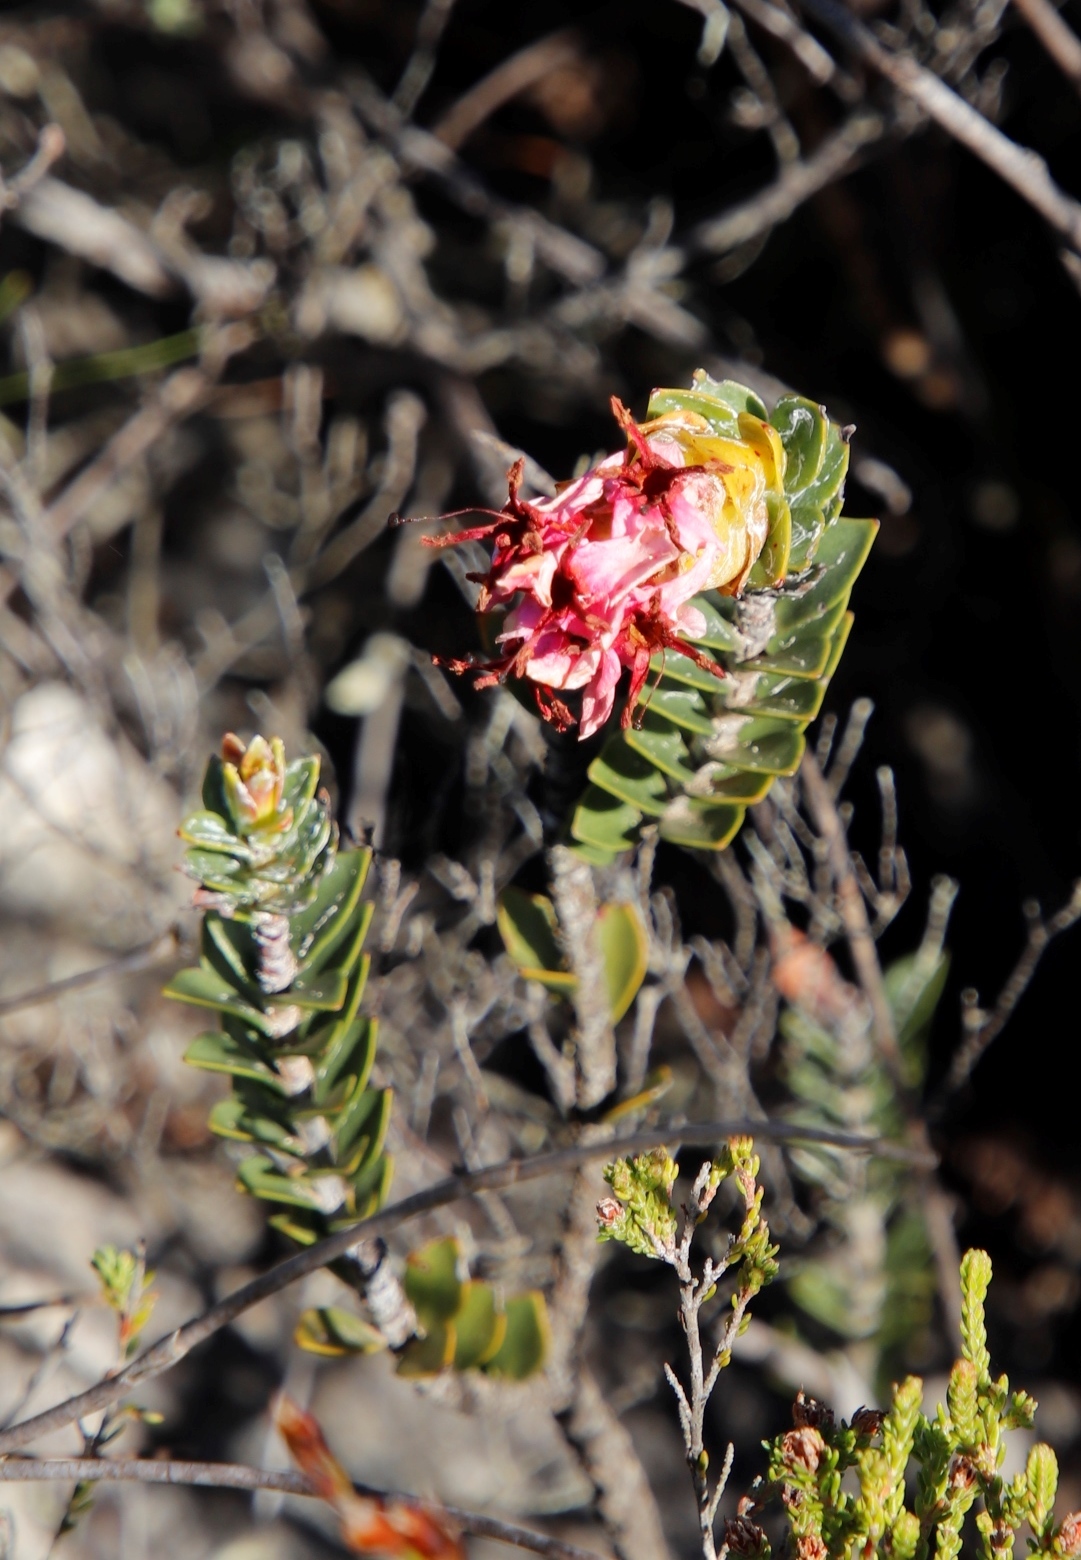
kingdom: Plantae
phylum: Tracheophyta
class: Magnoliopsida
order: Myrtales
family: Penaeaceae
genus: Saltera
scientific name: Saltera sarcocolla
